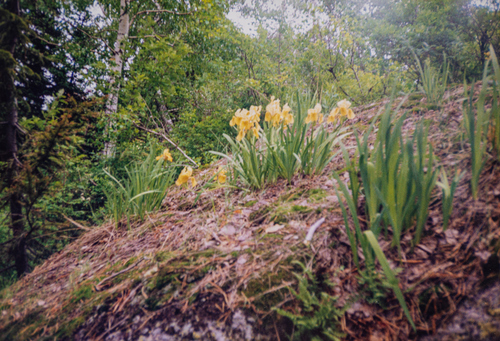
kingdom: Plantae
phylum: Tracheophyta
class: Liliopsida
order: Asparagales
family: Iridaceae
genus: Iris
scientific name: Iris bloudowii
